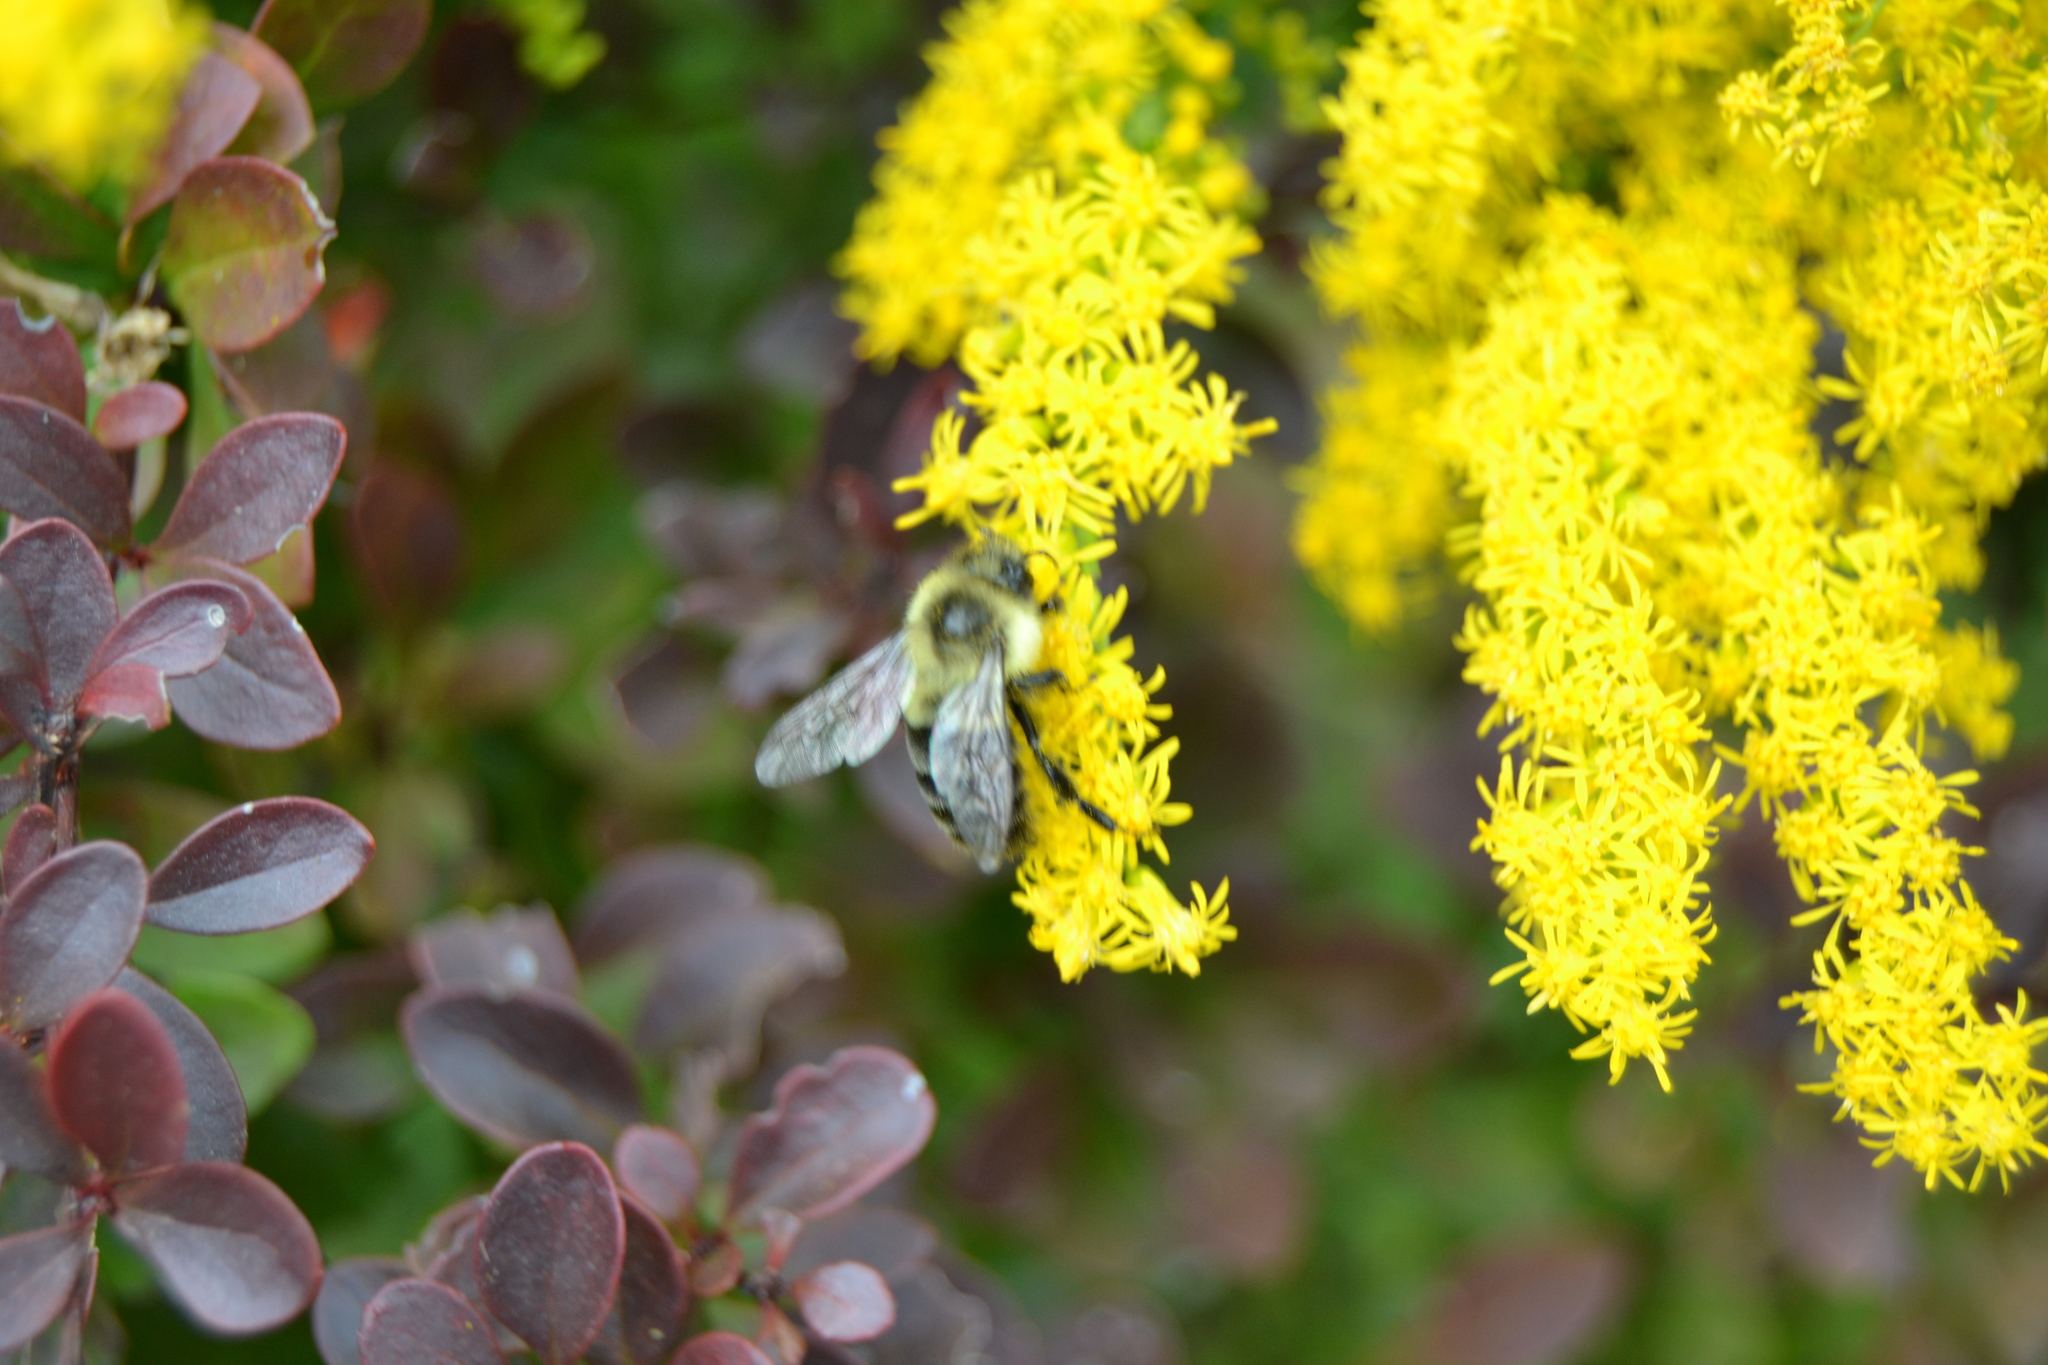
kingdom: Animalia
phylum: Arthropoda
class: Insecta
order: Hymenoptera
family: Apidae
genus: Bombus
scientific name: Bombus impatiens
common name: Common eastern bumble bee
